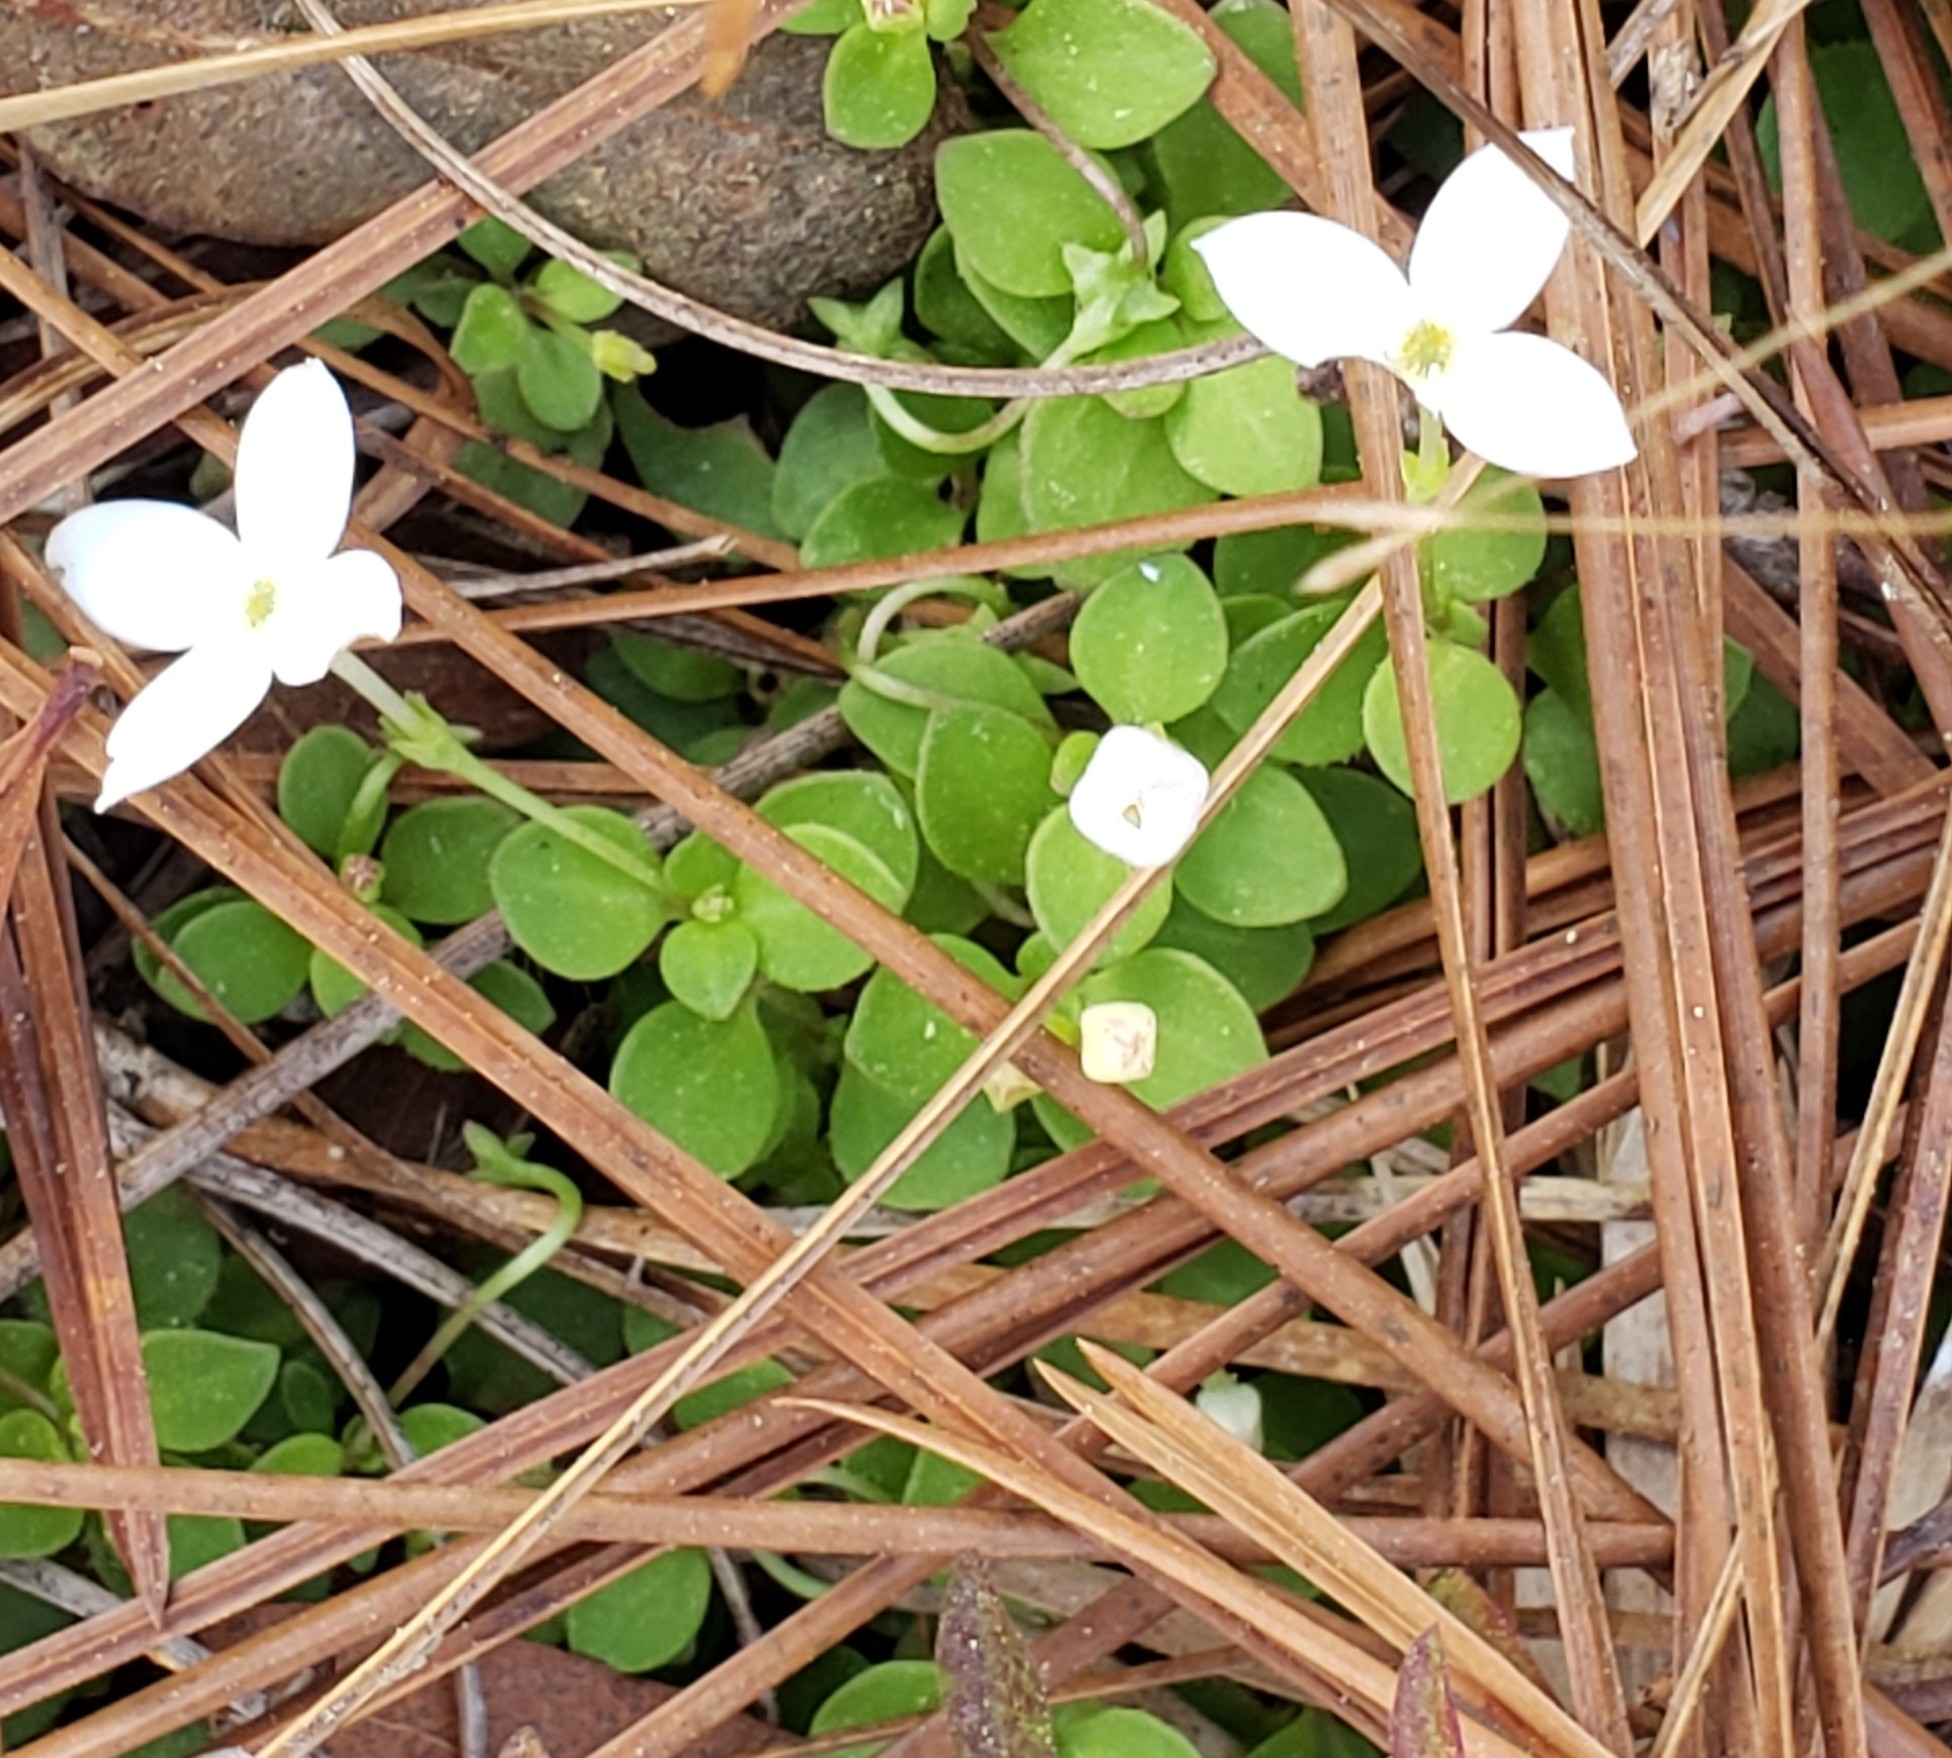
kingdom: Plantae
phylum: Tracheophyta
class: Magnoliopsida
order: Gentianales
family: Rubiaceae
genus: Houstonia
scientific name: Houstonia procumbens
